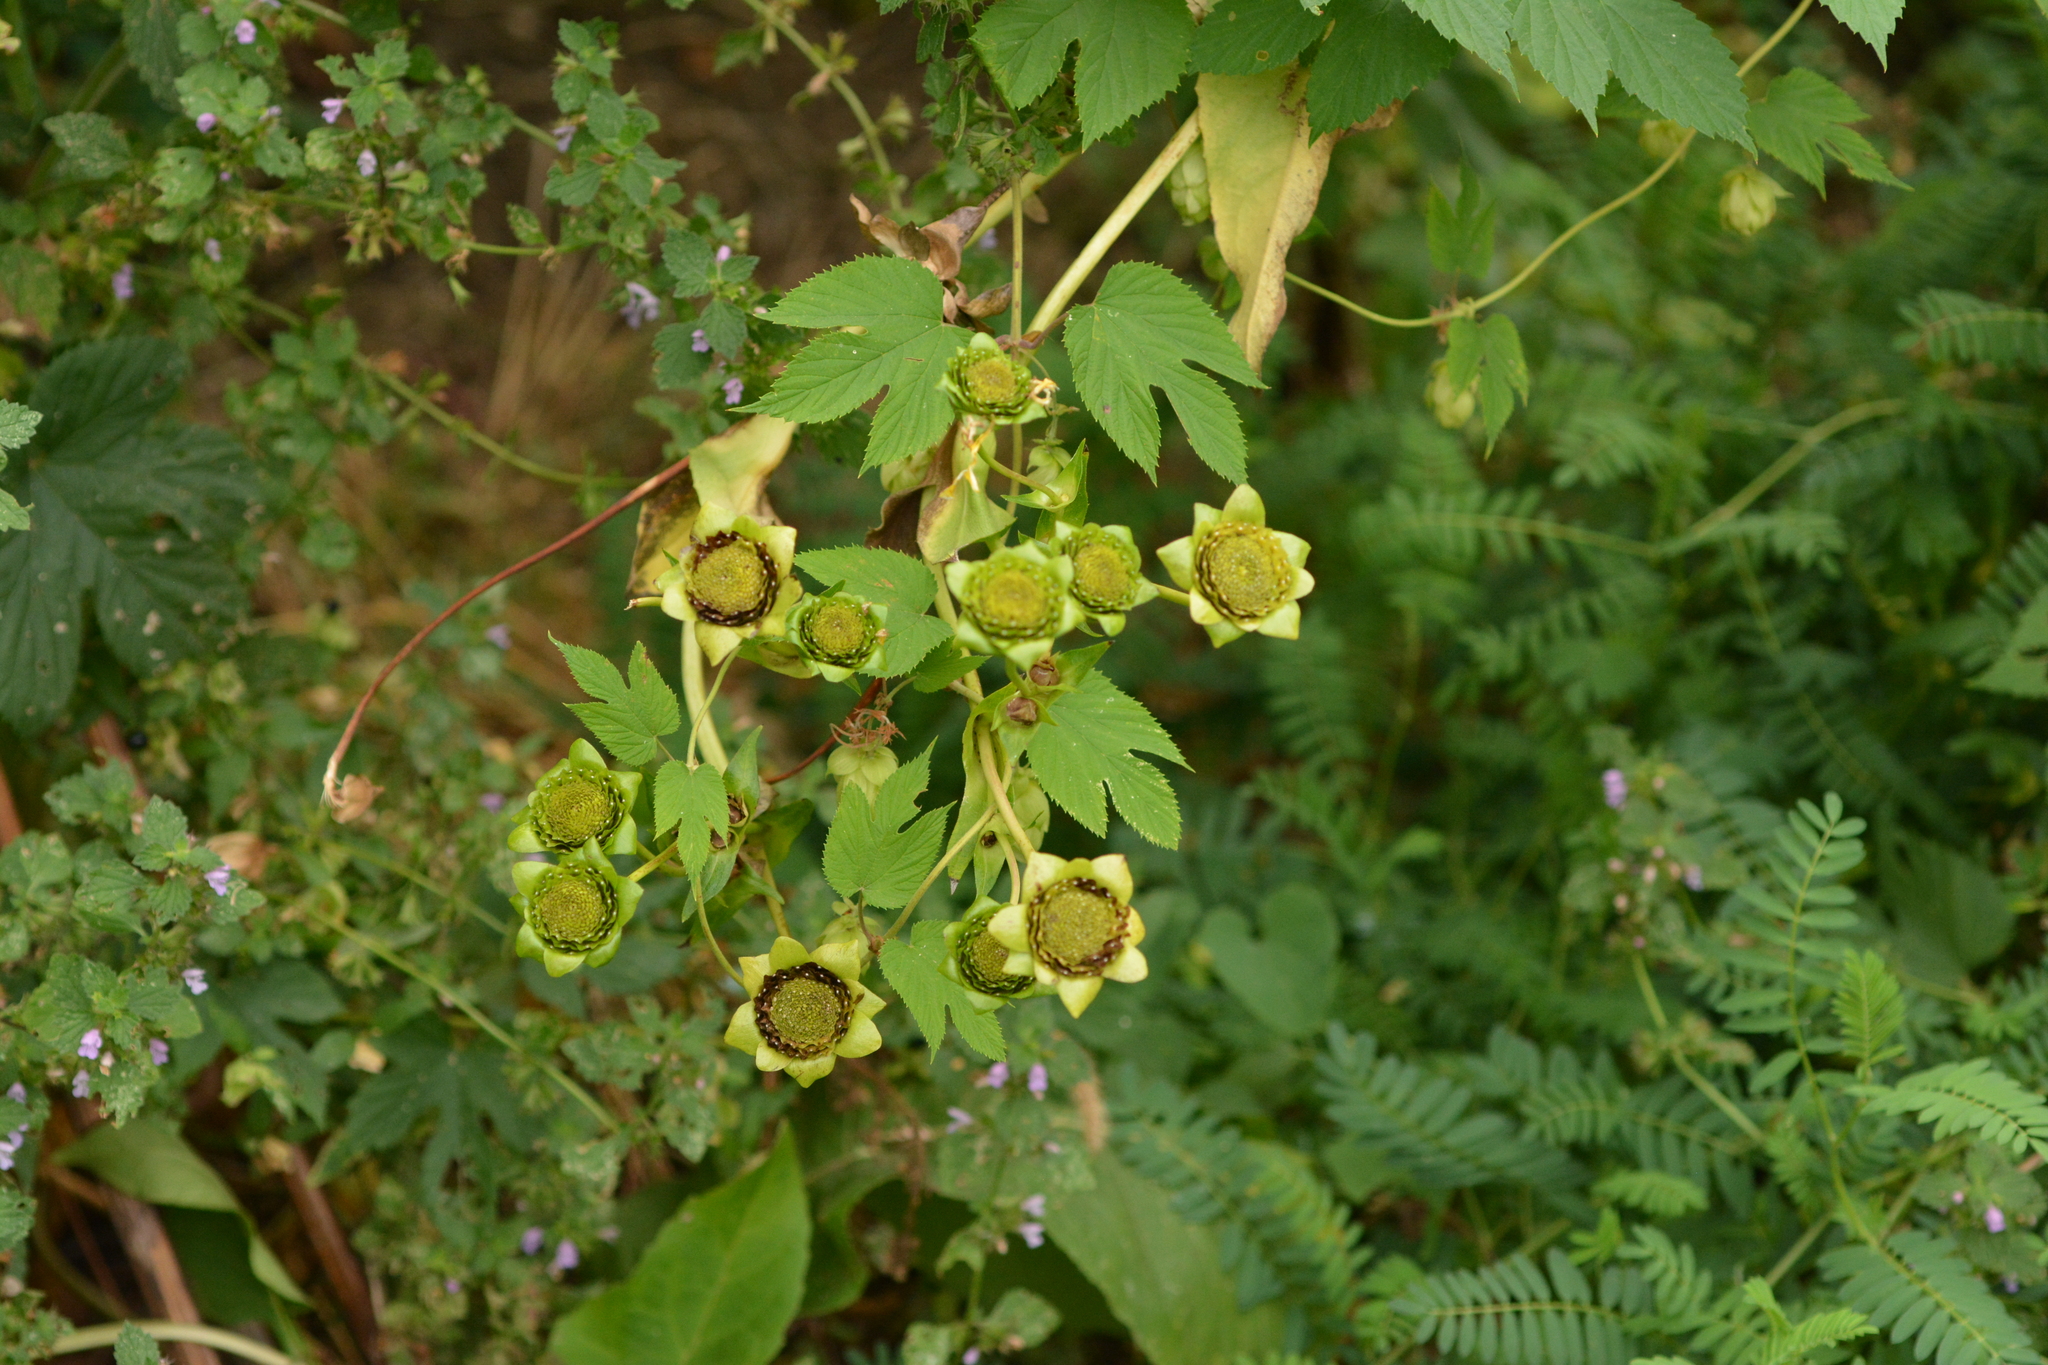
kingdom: Plantae
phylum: Tracheophyta
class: Magnoliopsida
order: Rosales
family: Cannabaceae
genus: Humulus
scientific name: Humulus lupulus
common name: Hop
